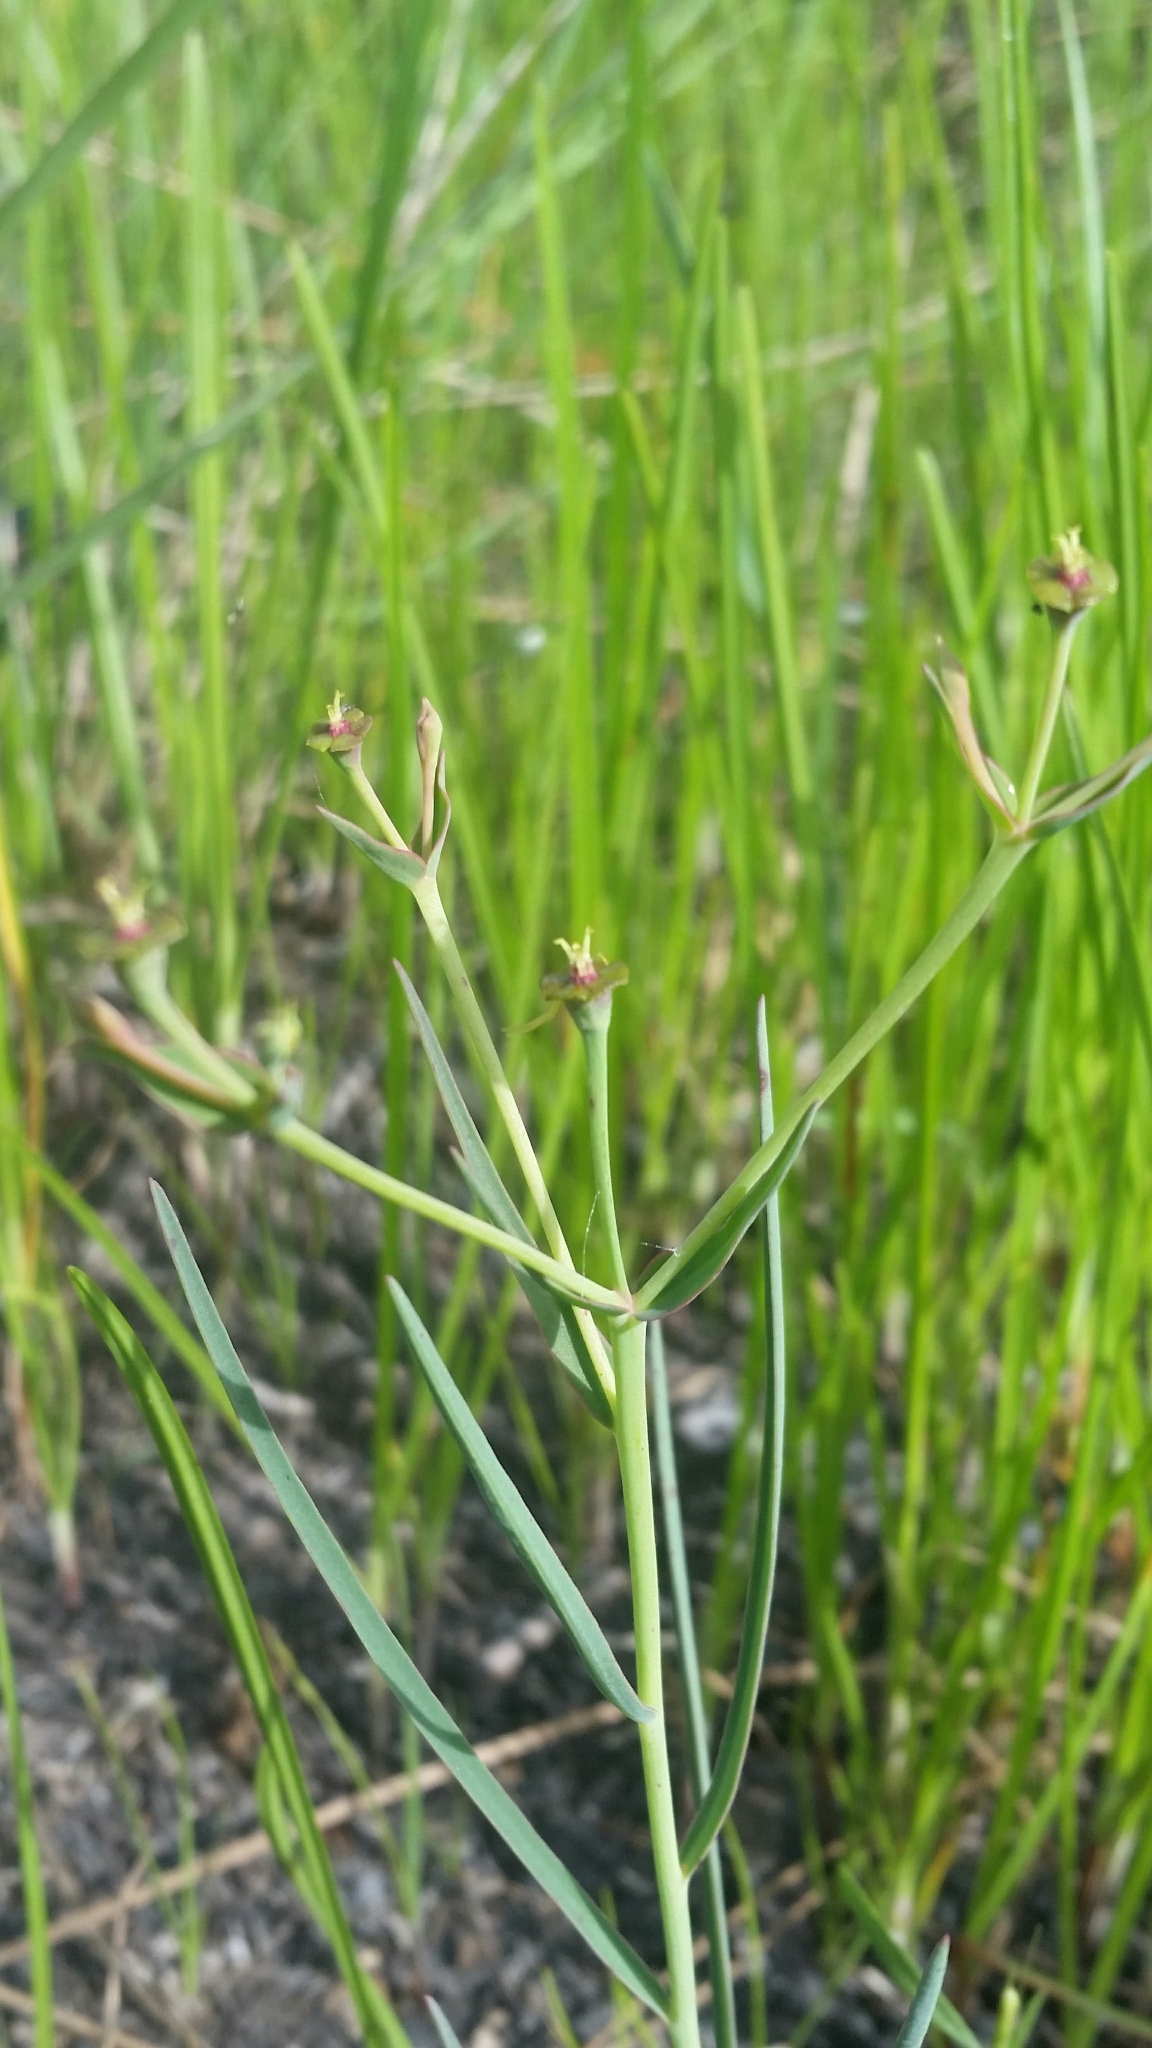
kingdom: Plantae
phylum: Tracheophyta
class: Magnoliopsida
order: Malpighiales
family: Euphorbiaceae
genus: Euphorbia
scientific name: Euphorbia inundata
